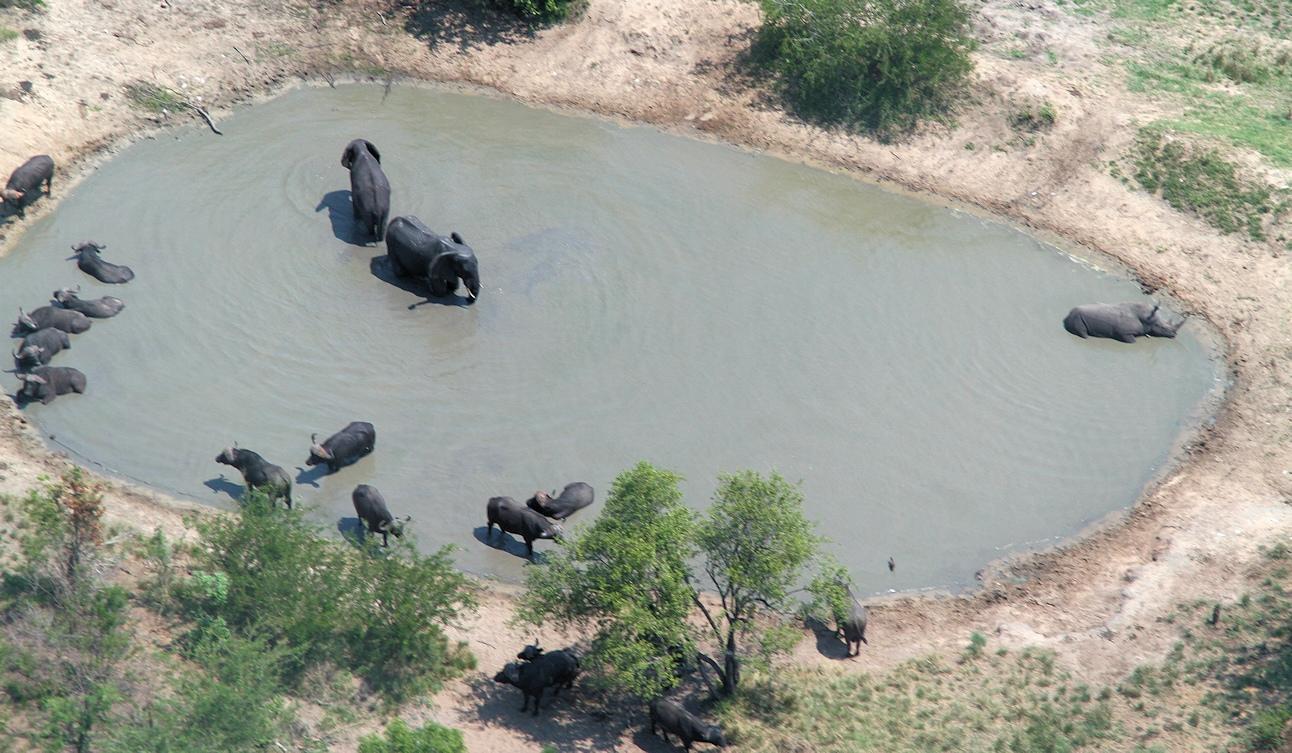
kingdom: Animalia
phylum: Chordata
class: Mammalia
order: Artiodactyla
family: Bovidae
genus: Syncerus
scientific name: Syncerus caffer
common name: African buffalo
